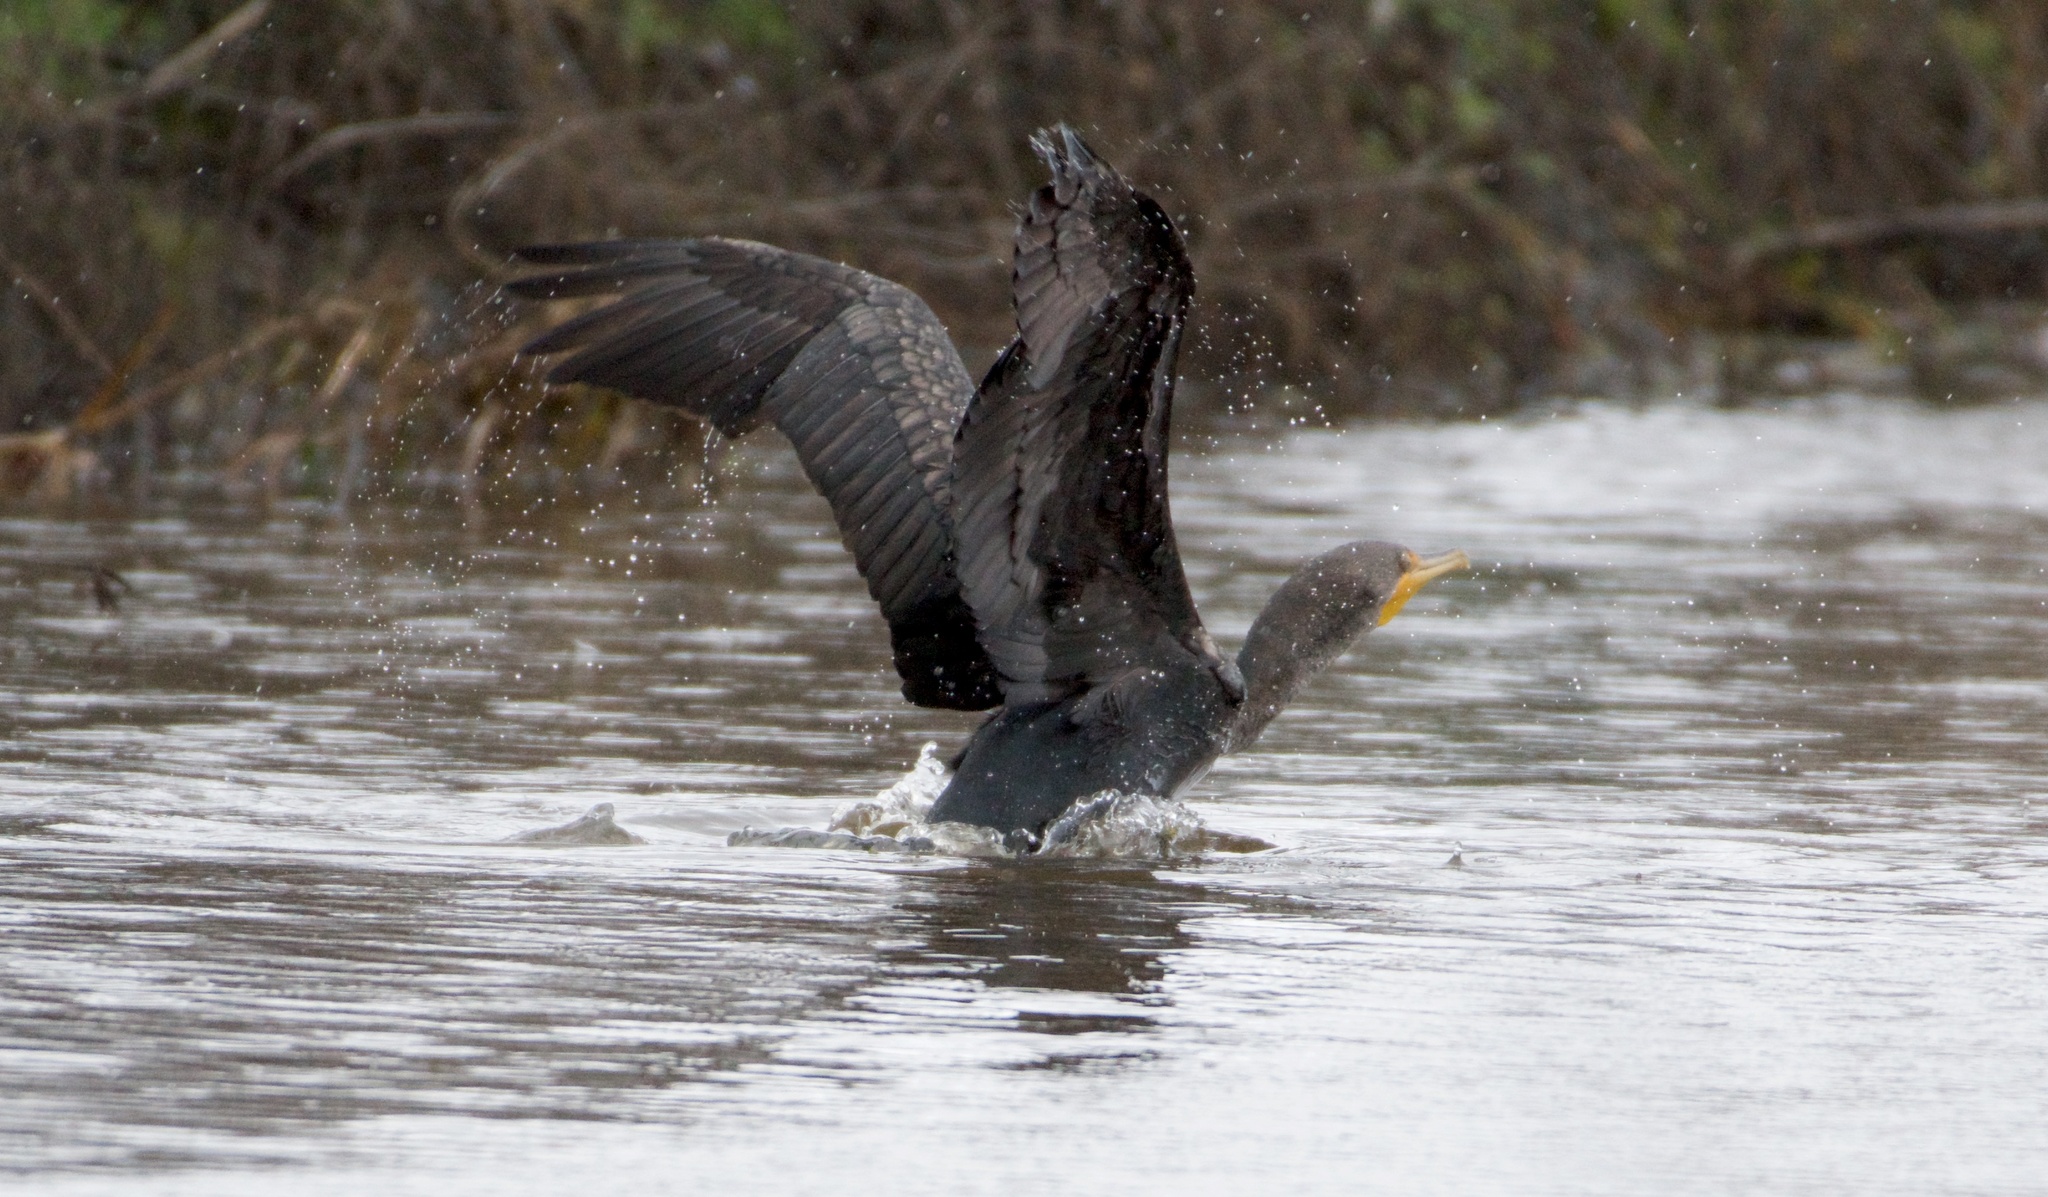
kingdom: Animalia
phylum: Chordata
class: Aves
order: Suliformes
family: Phalacrocoracidae
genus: Phalacrocorax
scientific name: Phalacrocorax auritus
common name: Double-crested cormorant
